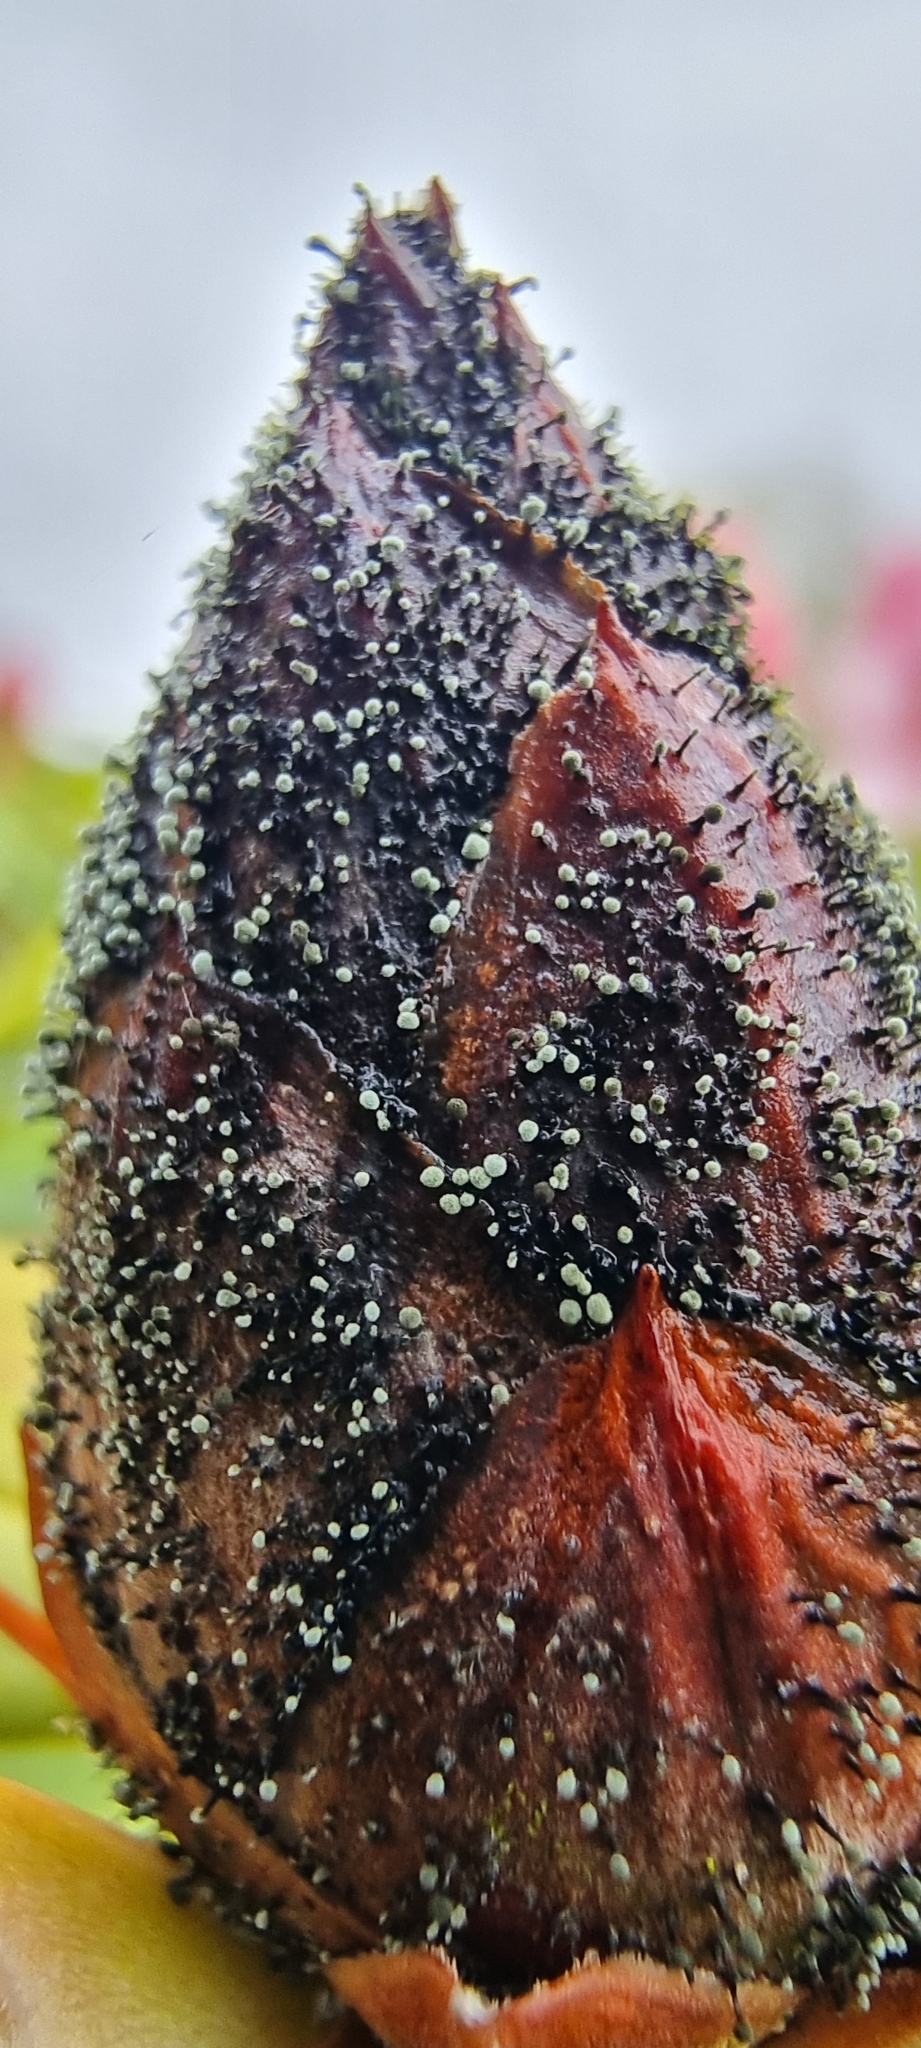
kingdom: Fungi
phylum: Ascomycota
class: Dothideomycetes
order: Pleosporales
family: Melanommataceae
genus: Seifertia
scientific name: Seifertia azaleae
